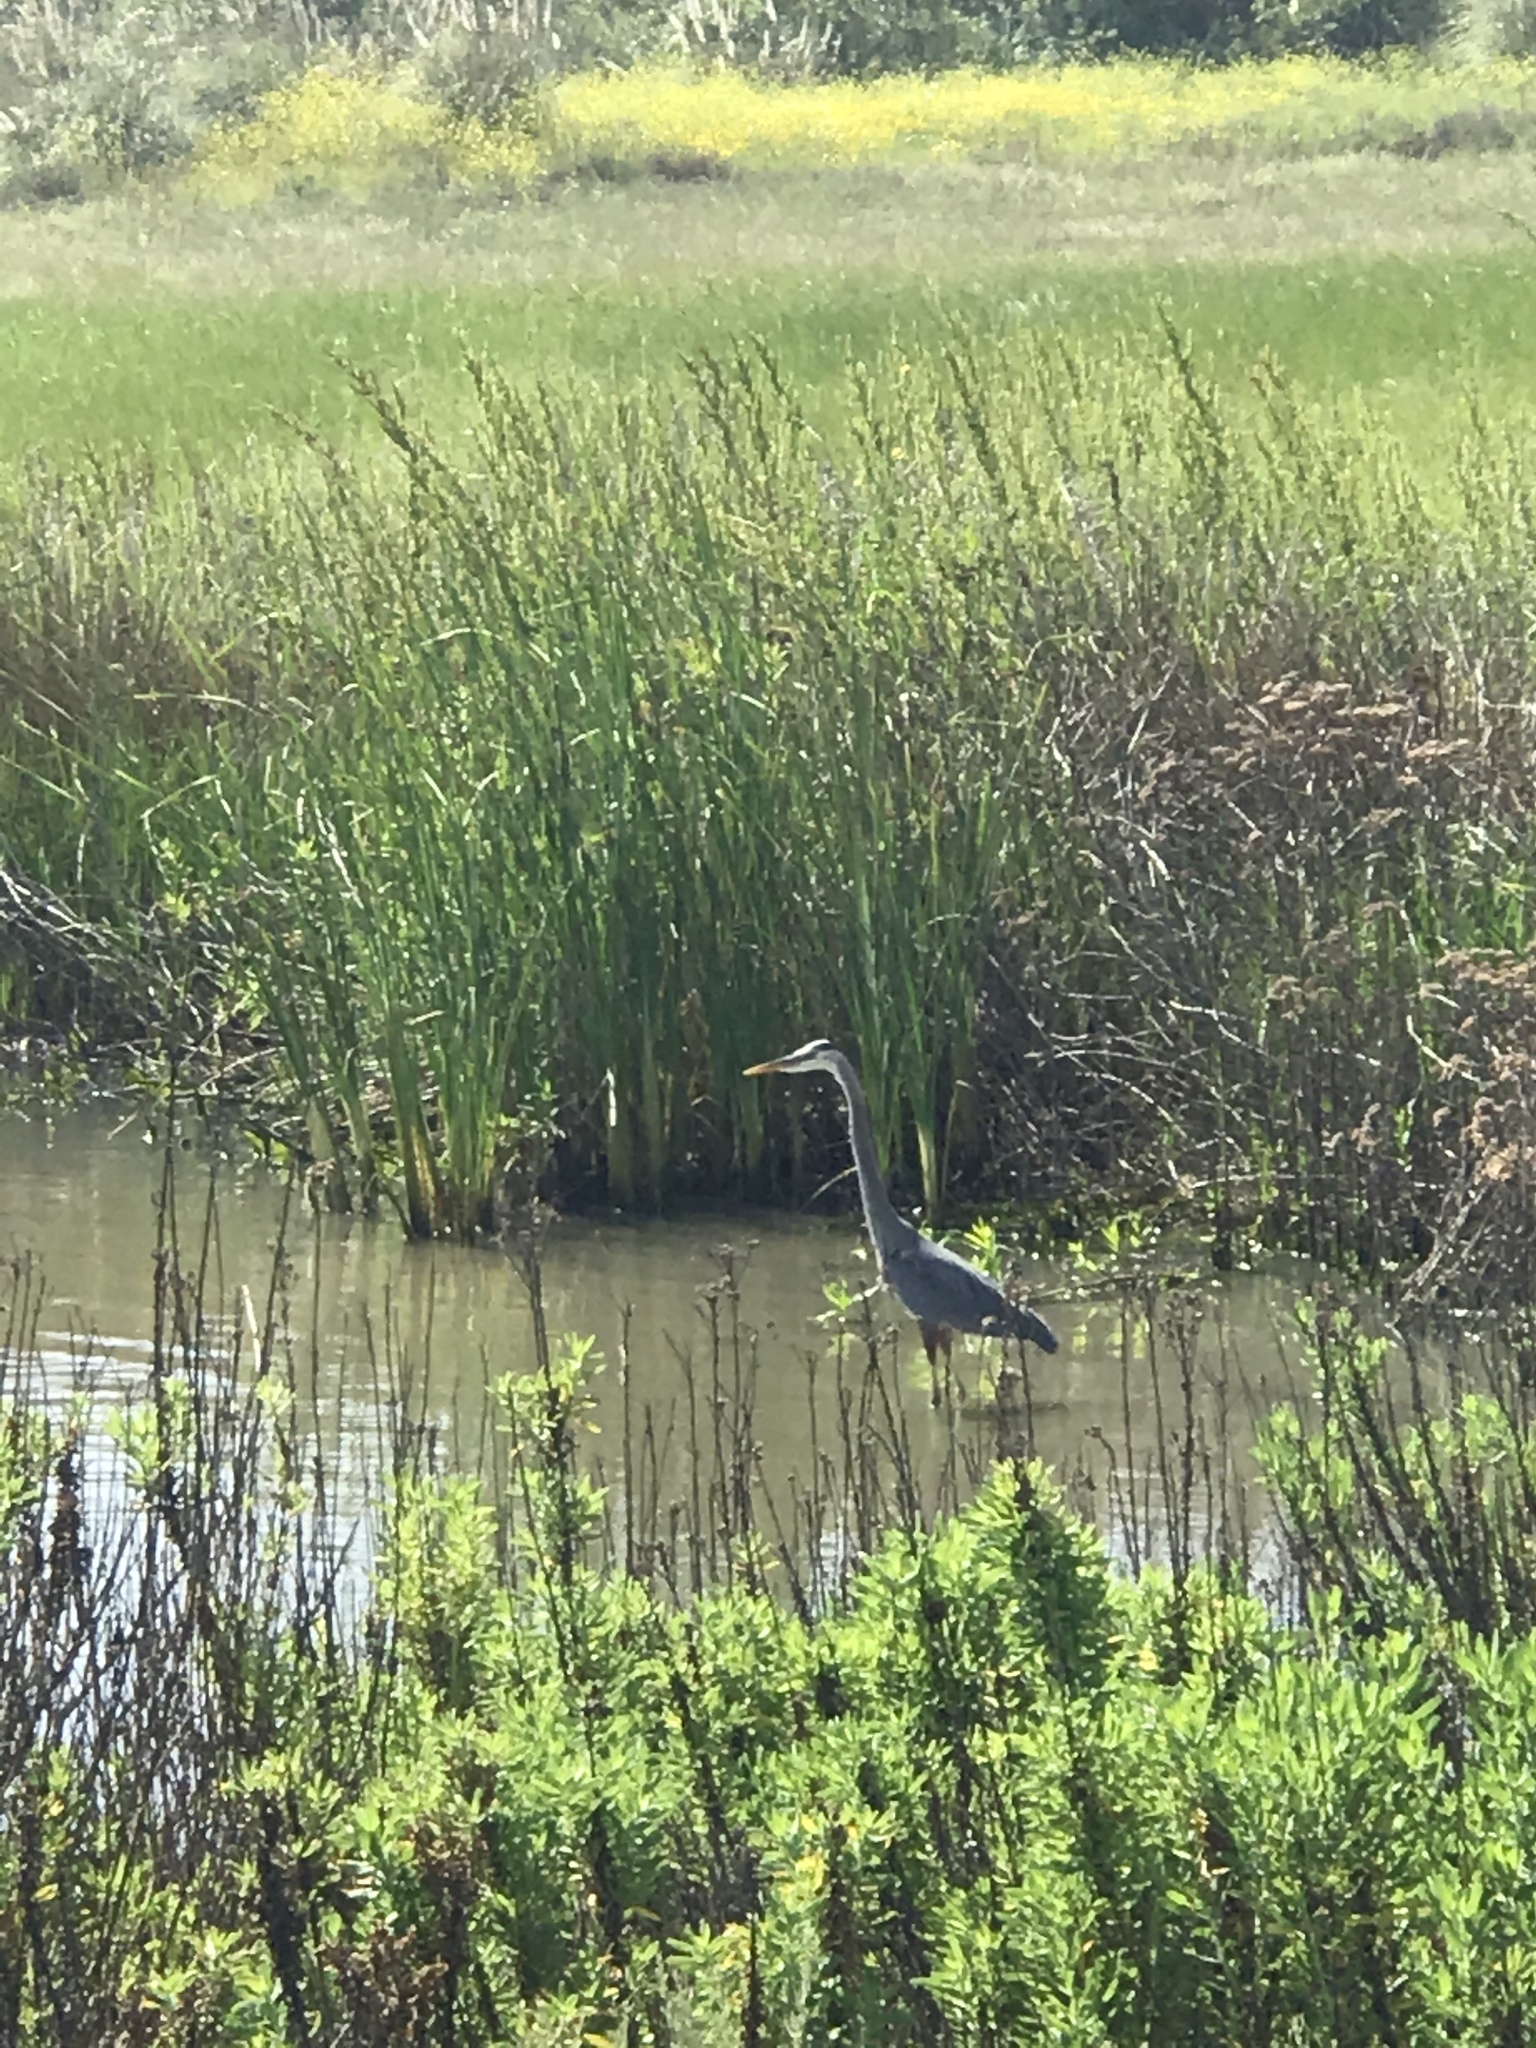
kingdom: Animalia
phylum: Chordata
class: Aves
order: Pelecaniformes
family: Ardeidae
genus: Ardea
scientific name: Ardea herodias
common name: Great blue heron
